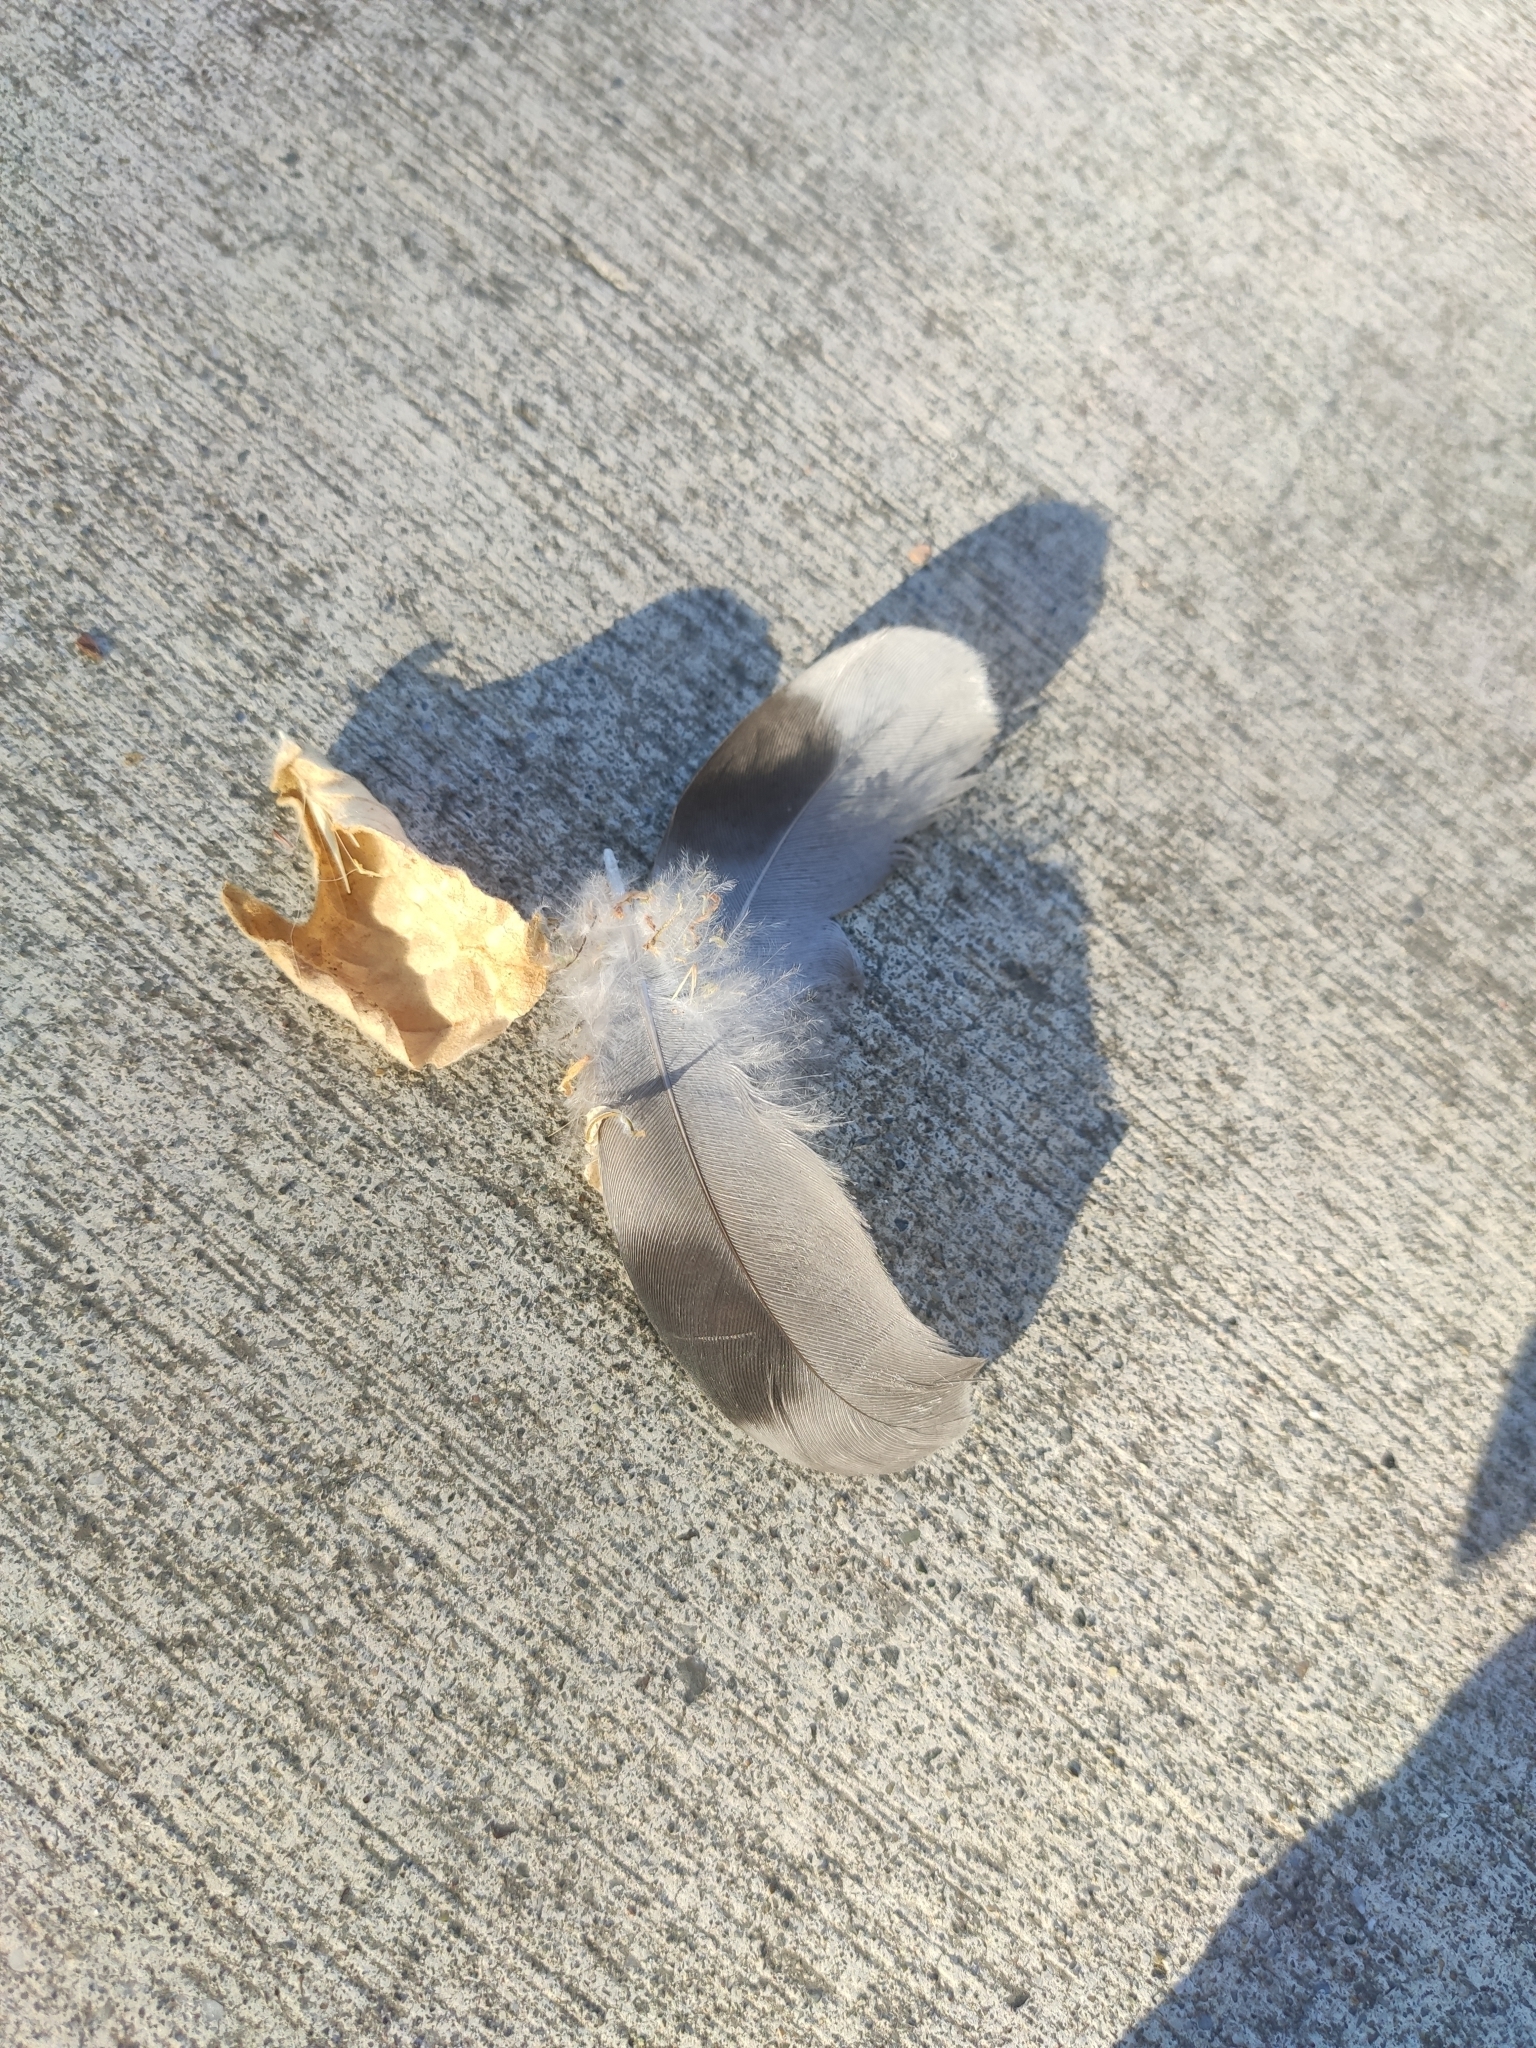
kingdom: Animalia
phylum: Chordata
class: Aves
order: Columbiformes
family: Columbidae
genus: Columba
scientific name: Columba livia
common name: Rock pigeon
